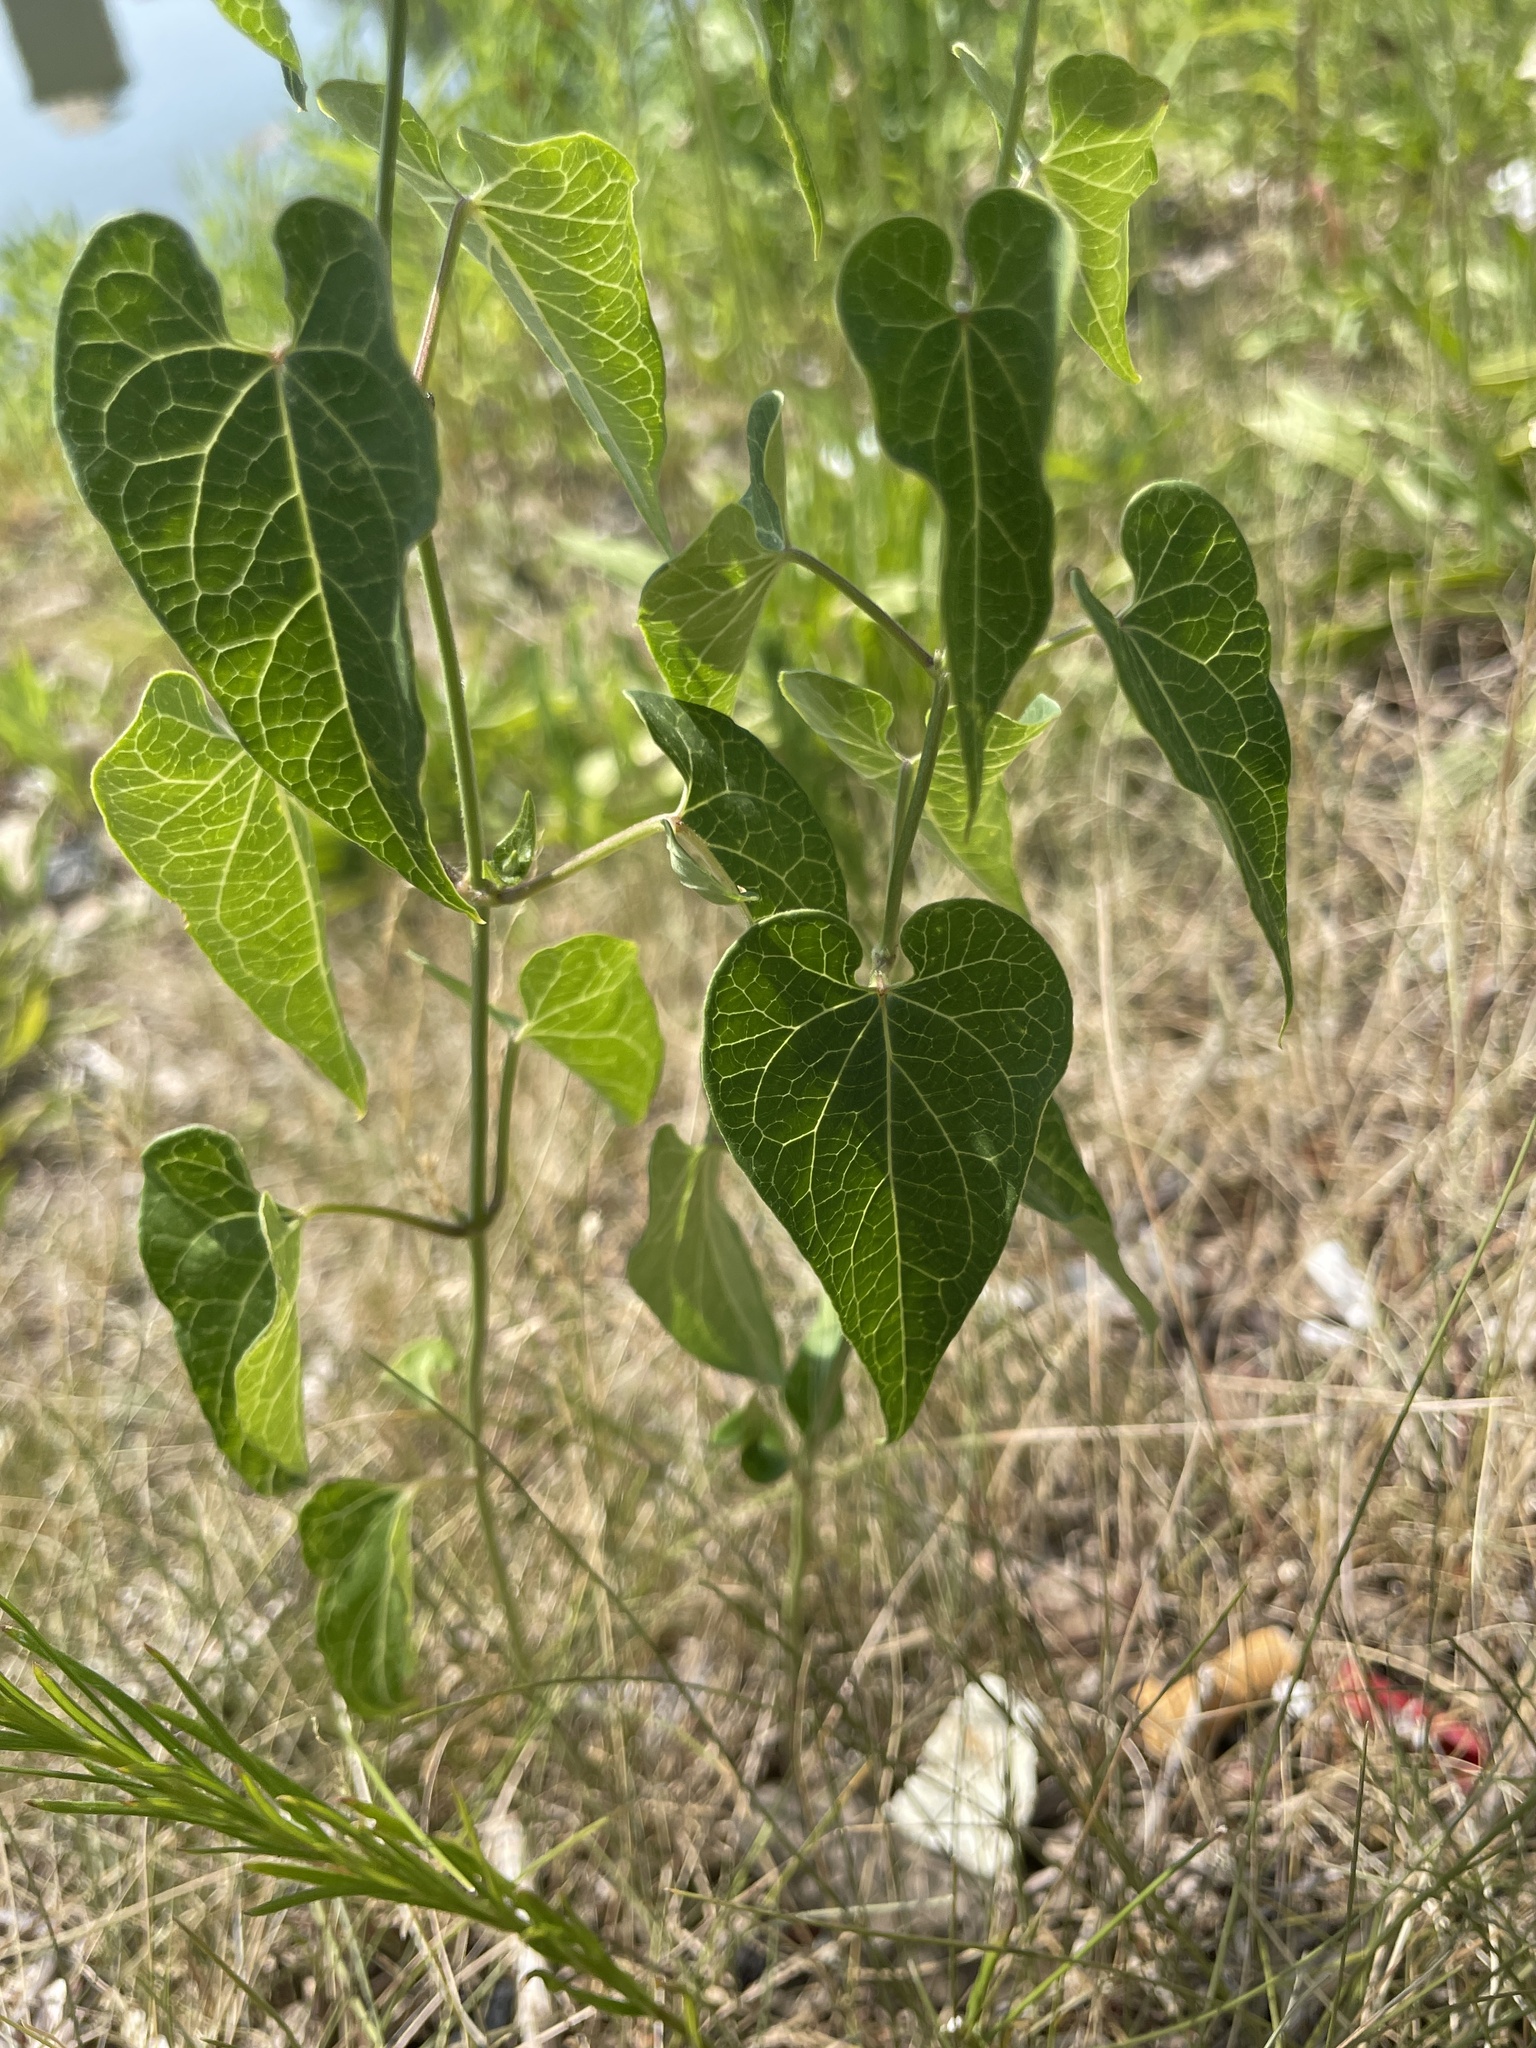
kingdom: Plantae
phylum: Tracheophyta
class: Magnoliopsida
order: Gentianales
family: Apocynaceae
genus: Cynanchum
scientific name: Cynanchum laeve
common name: Sandvine
